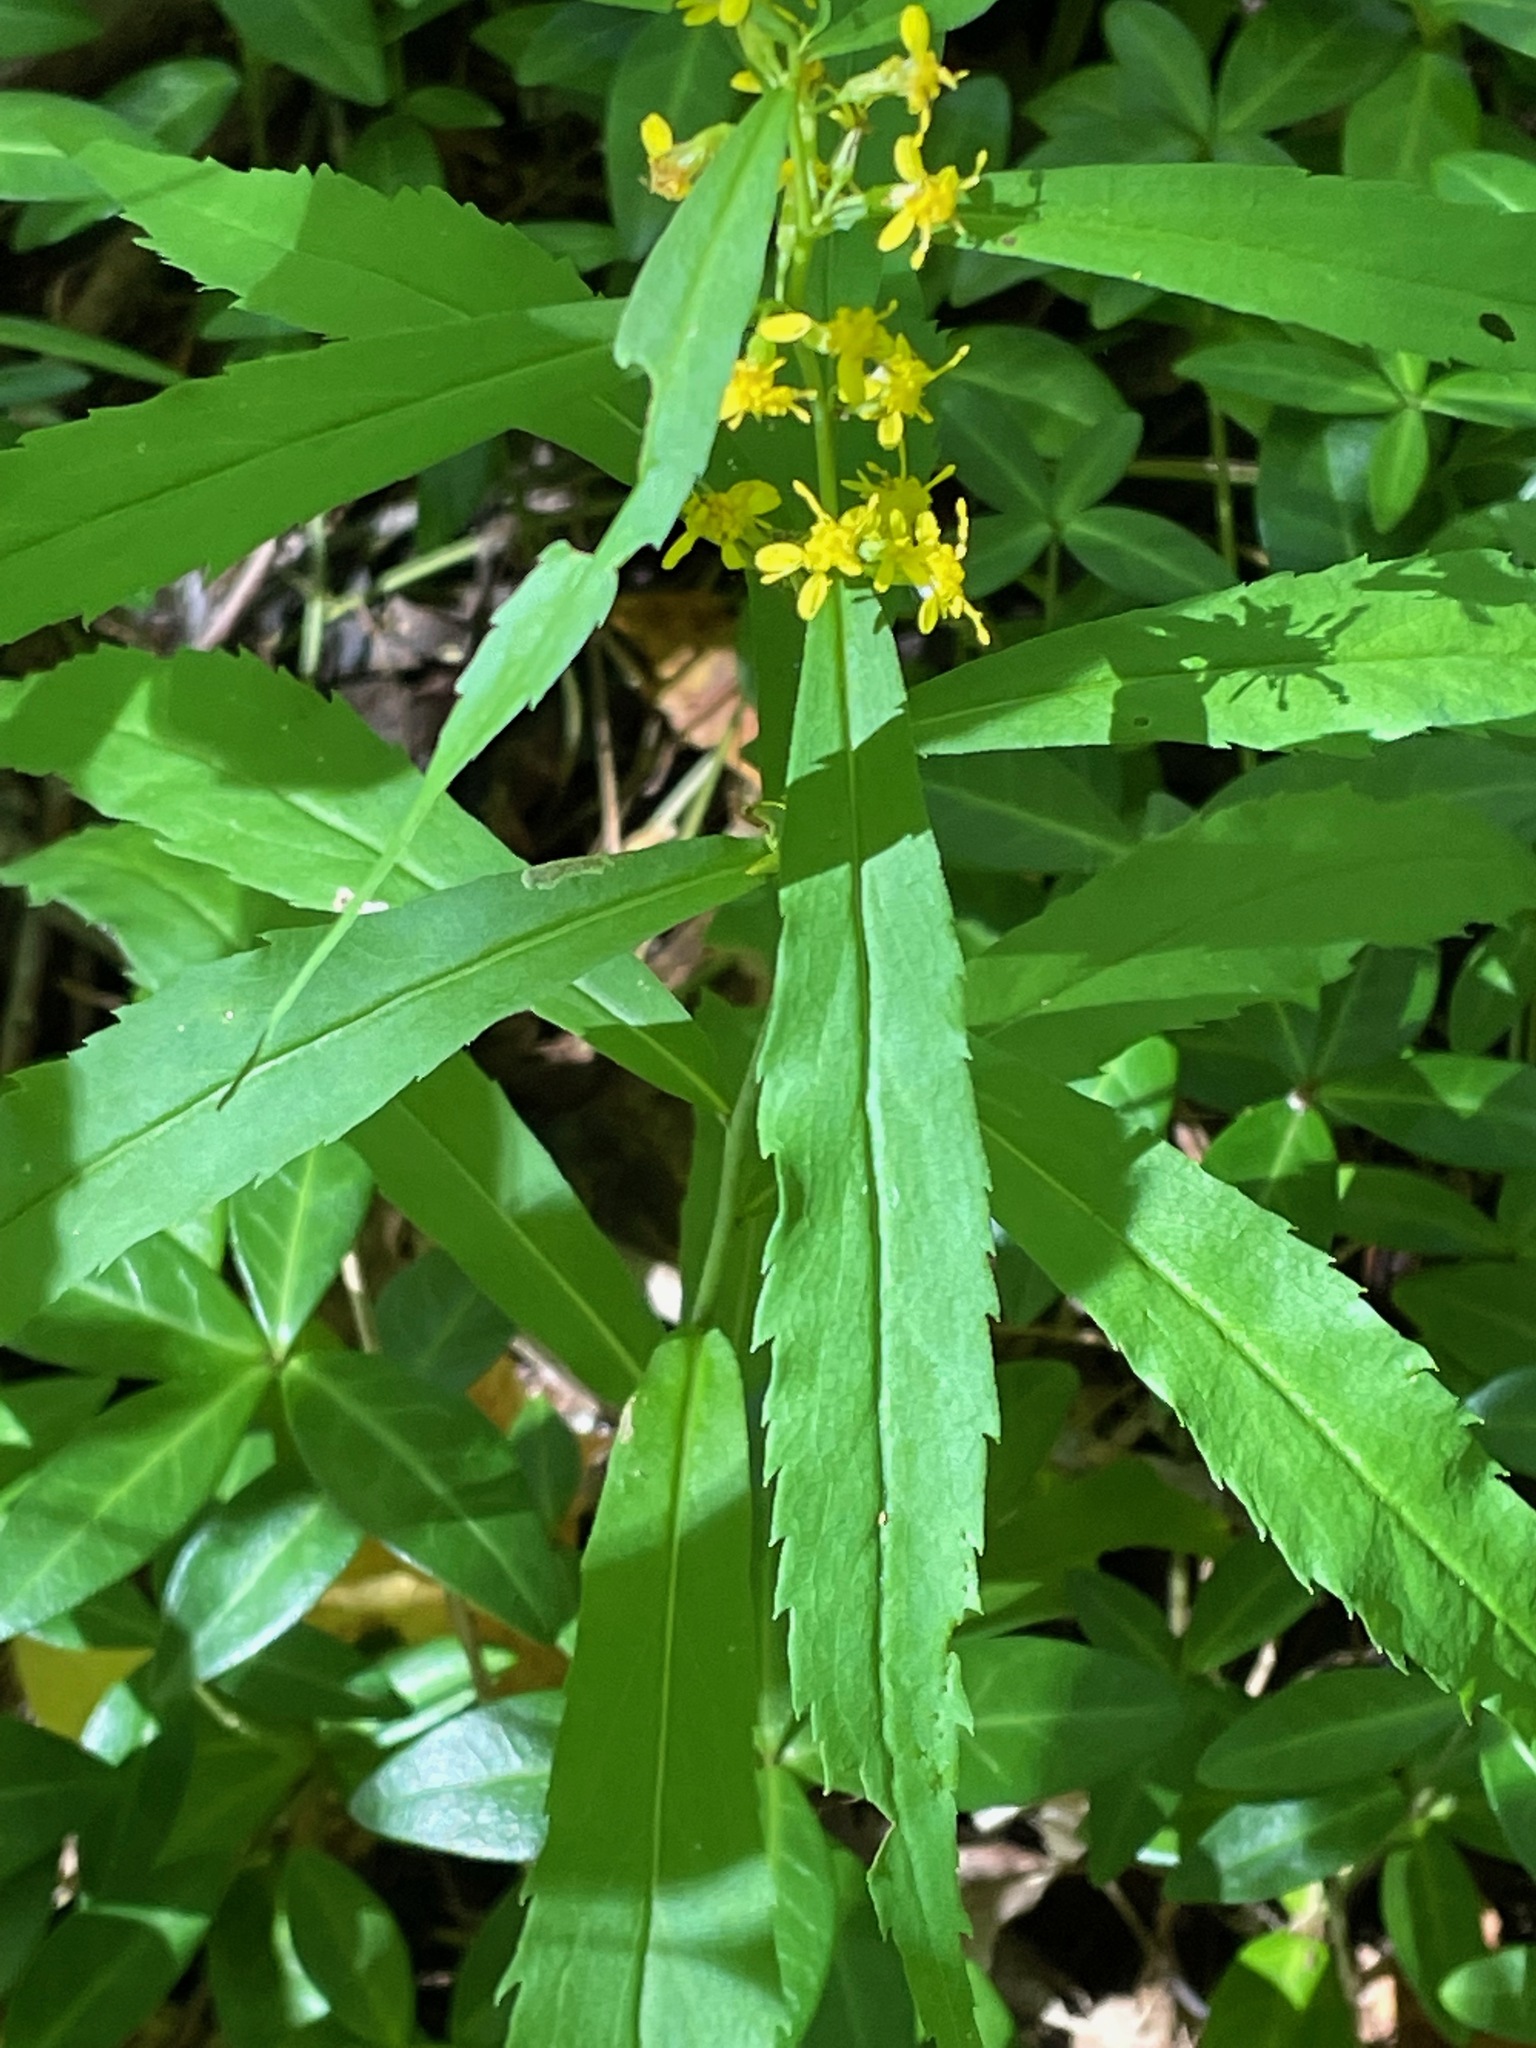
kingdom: Plantae
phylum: Tracheophyta
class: Magnoliopsida
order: Asterales
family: Asteraceae
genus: Solidago
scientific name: Solidago caesia
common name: Woodland goldenrod
